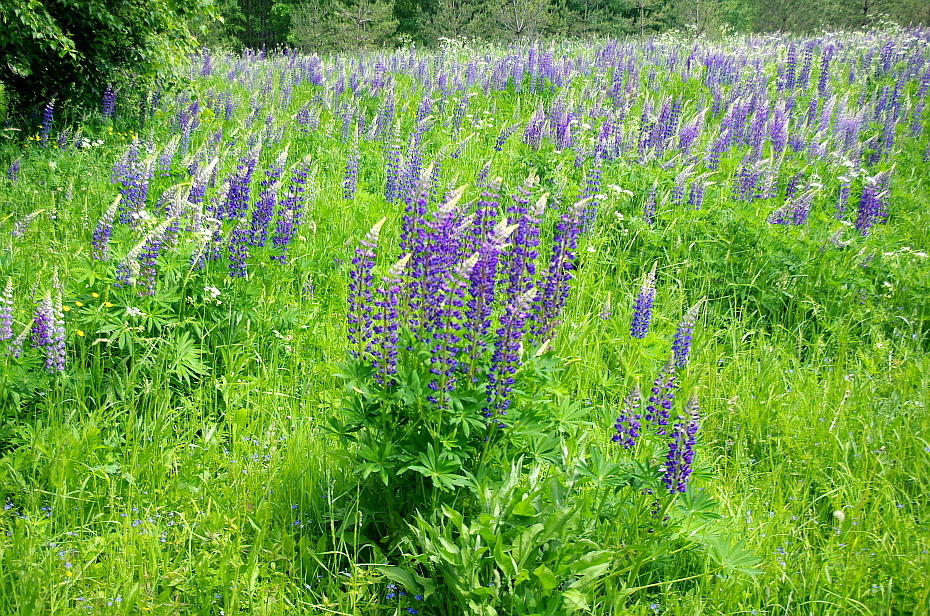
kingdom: Plantae
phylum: Tracheophyta
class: Magnoliopsida
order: Fabales
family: Fabaceae
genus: Lupinus
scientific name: Lupinus polyphyllus
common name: Garden lupin
